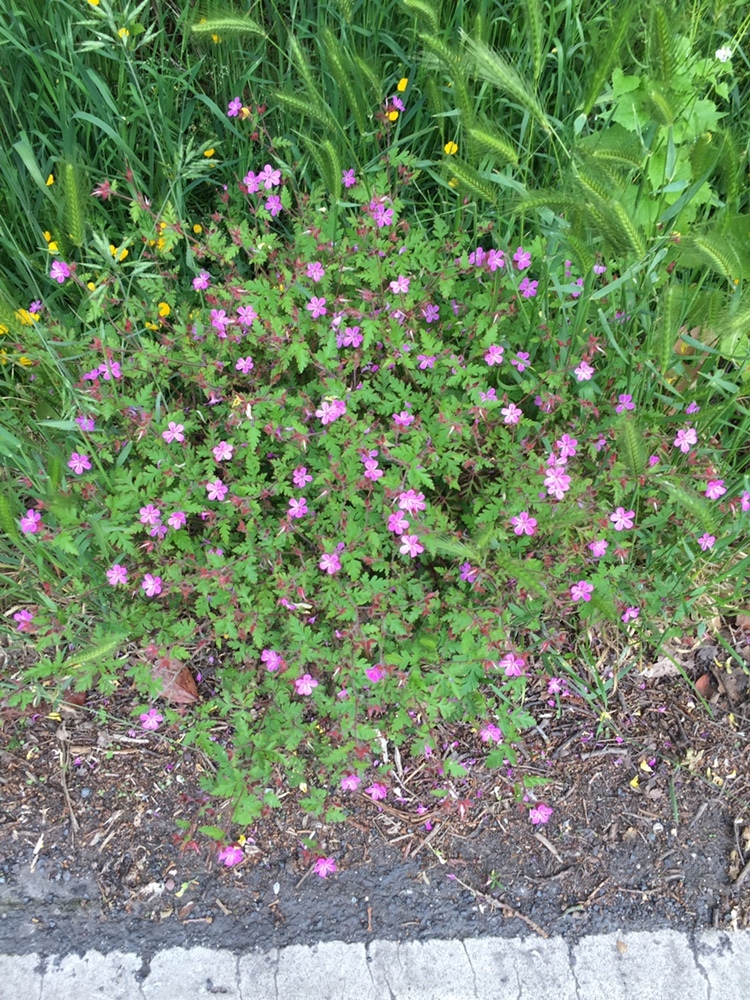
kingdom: Plantae
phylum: Tracheophyta
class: Magnoliopsida
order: Geraniales
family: Geraniaceae
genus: Geranium
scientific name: Geranium robertianum
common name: Herb-robert
